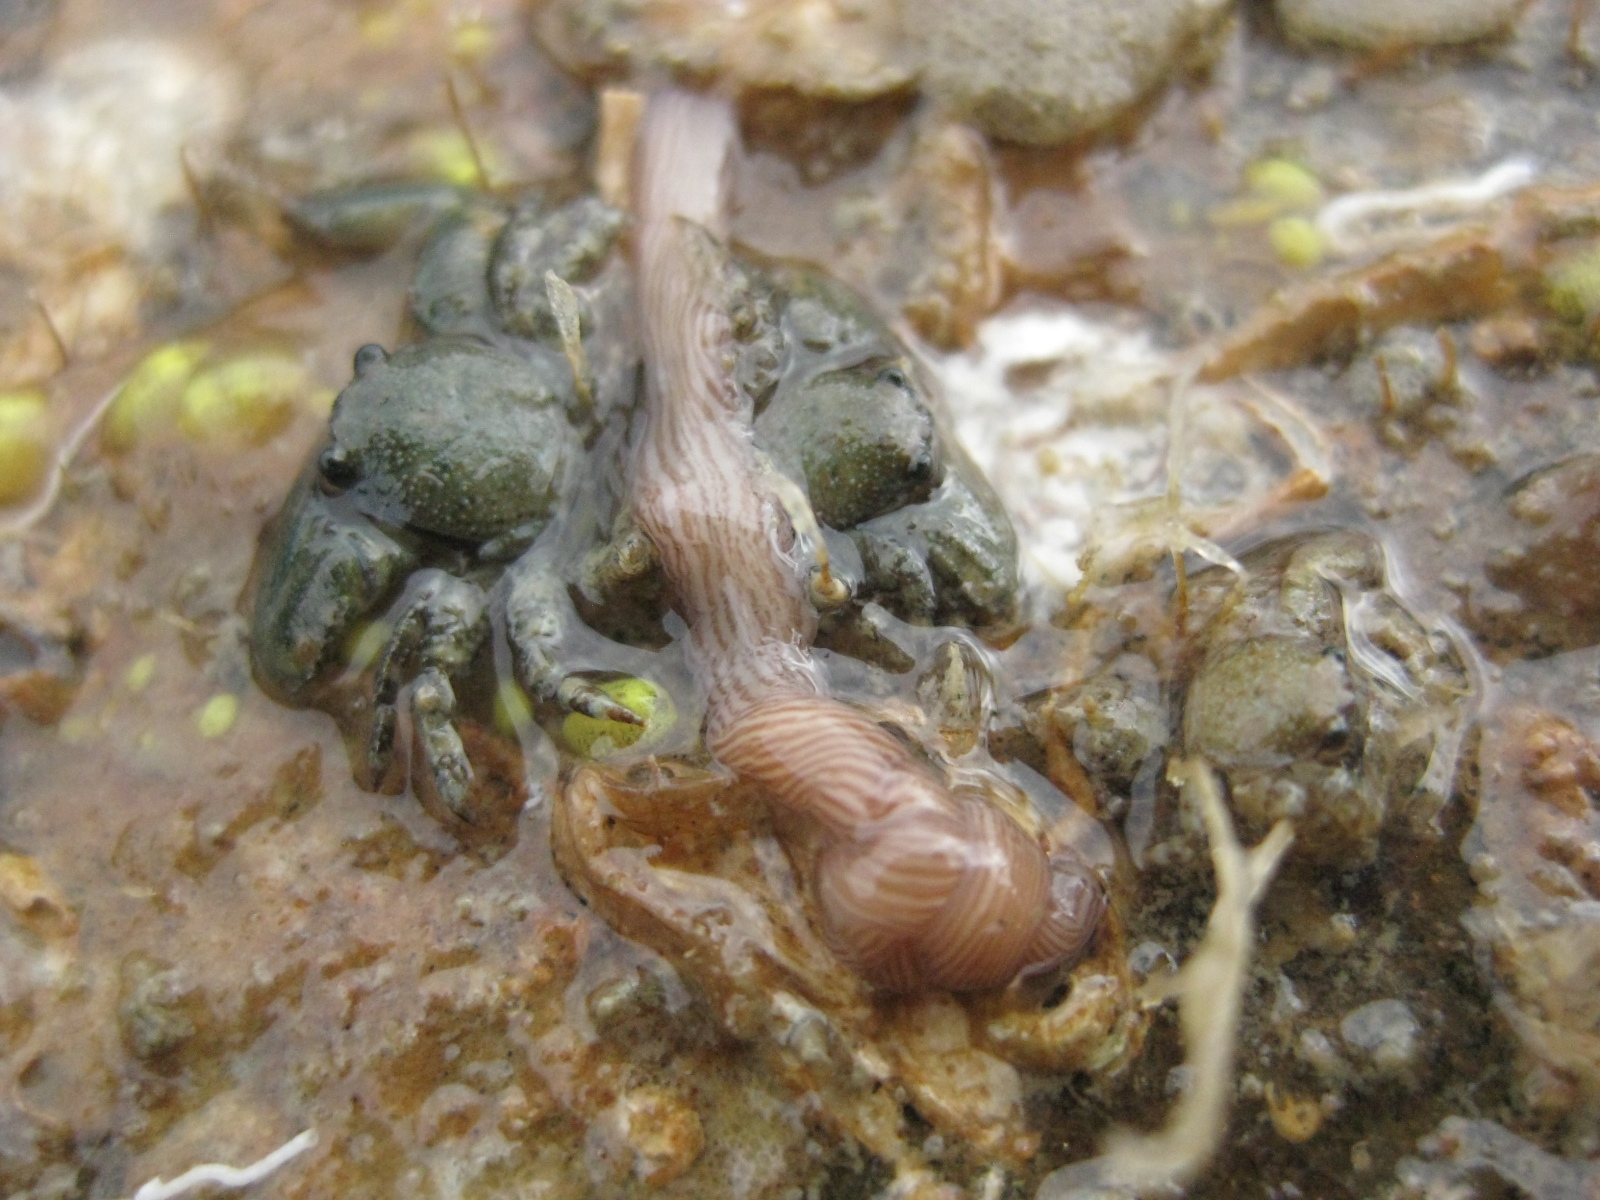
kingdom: Animalia
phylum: Nemertea
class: Pilidiophora
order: Heteronemertea
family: Valenciniidae
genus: Baseodiscus
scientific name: Baseodiscus delineatus
